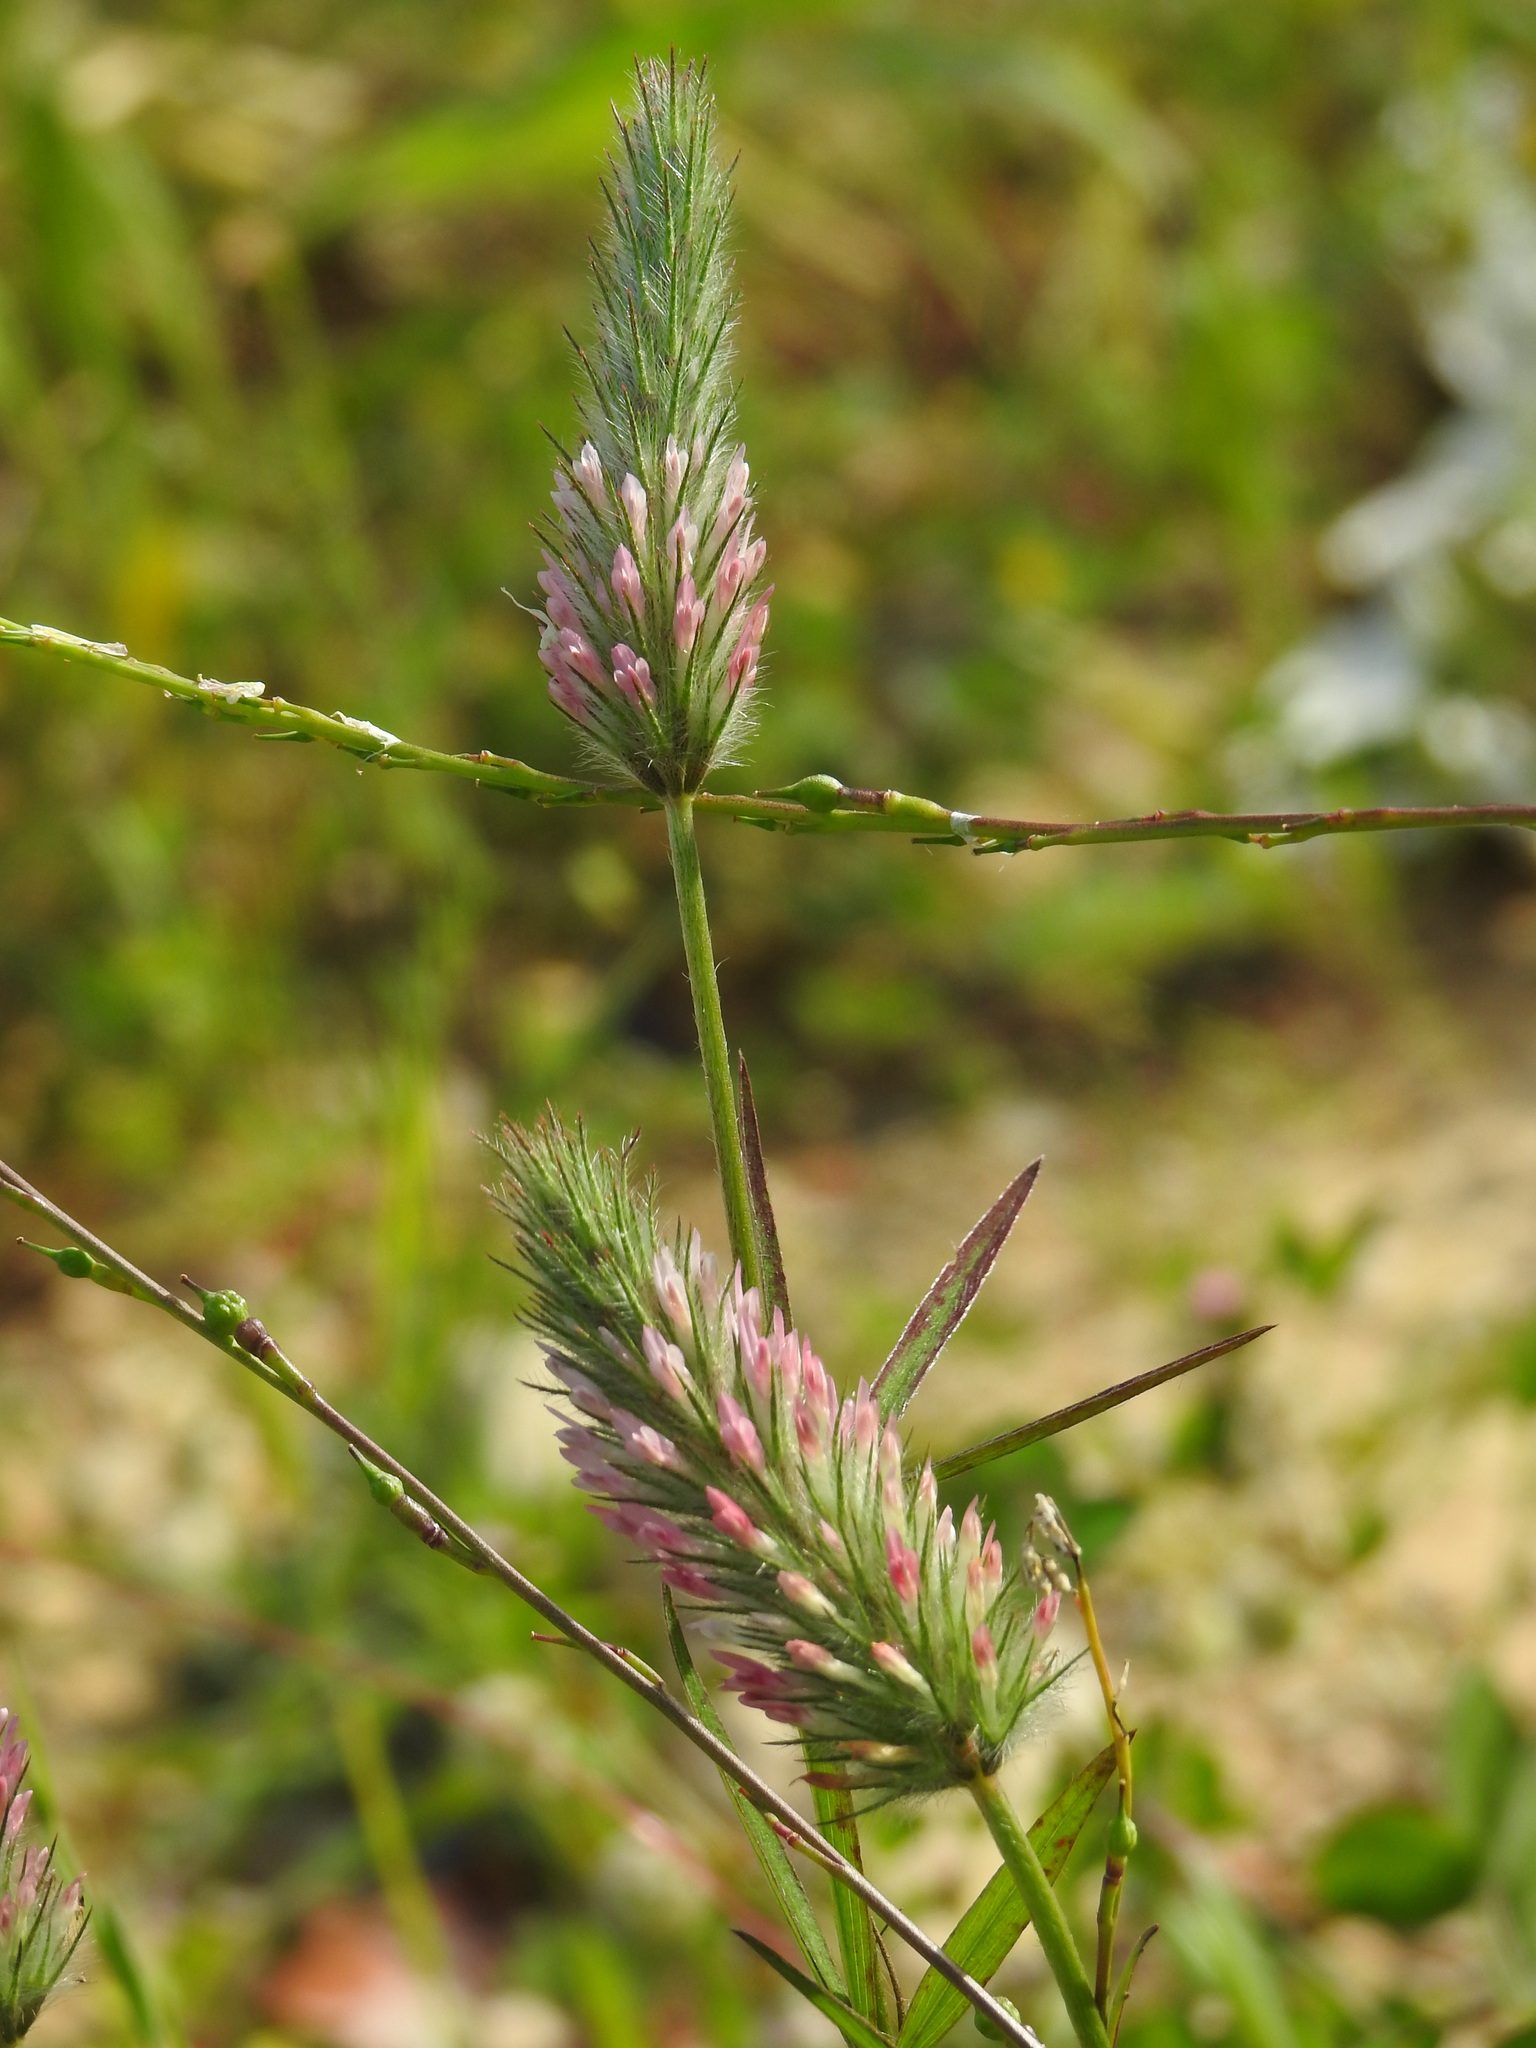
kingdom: Plantae
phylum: Tracheophyta
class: Magnoliopsida
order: Fabales
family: Fabaceae
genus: Trifolium
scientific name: Trifolium angustifolium
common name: Narrow clover
